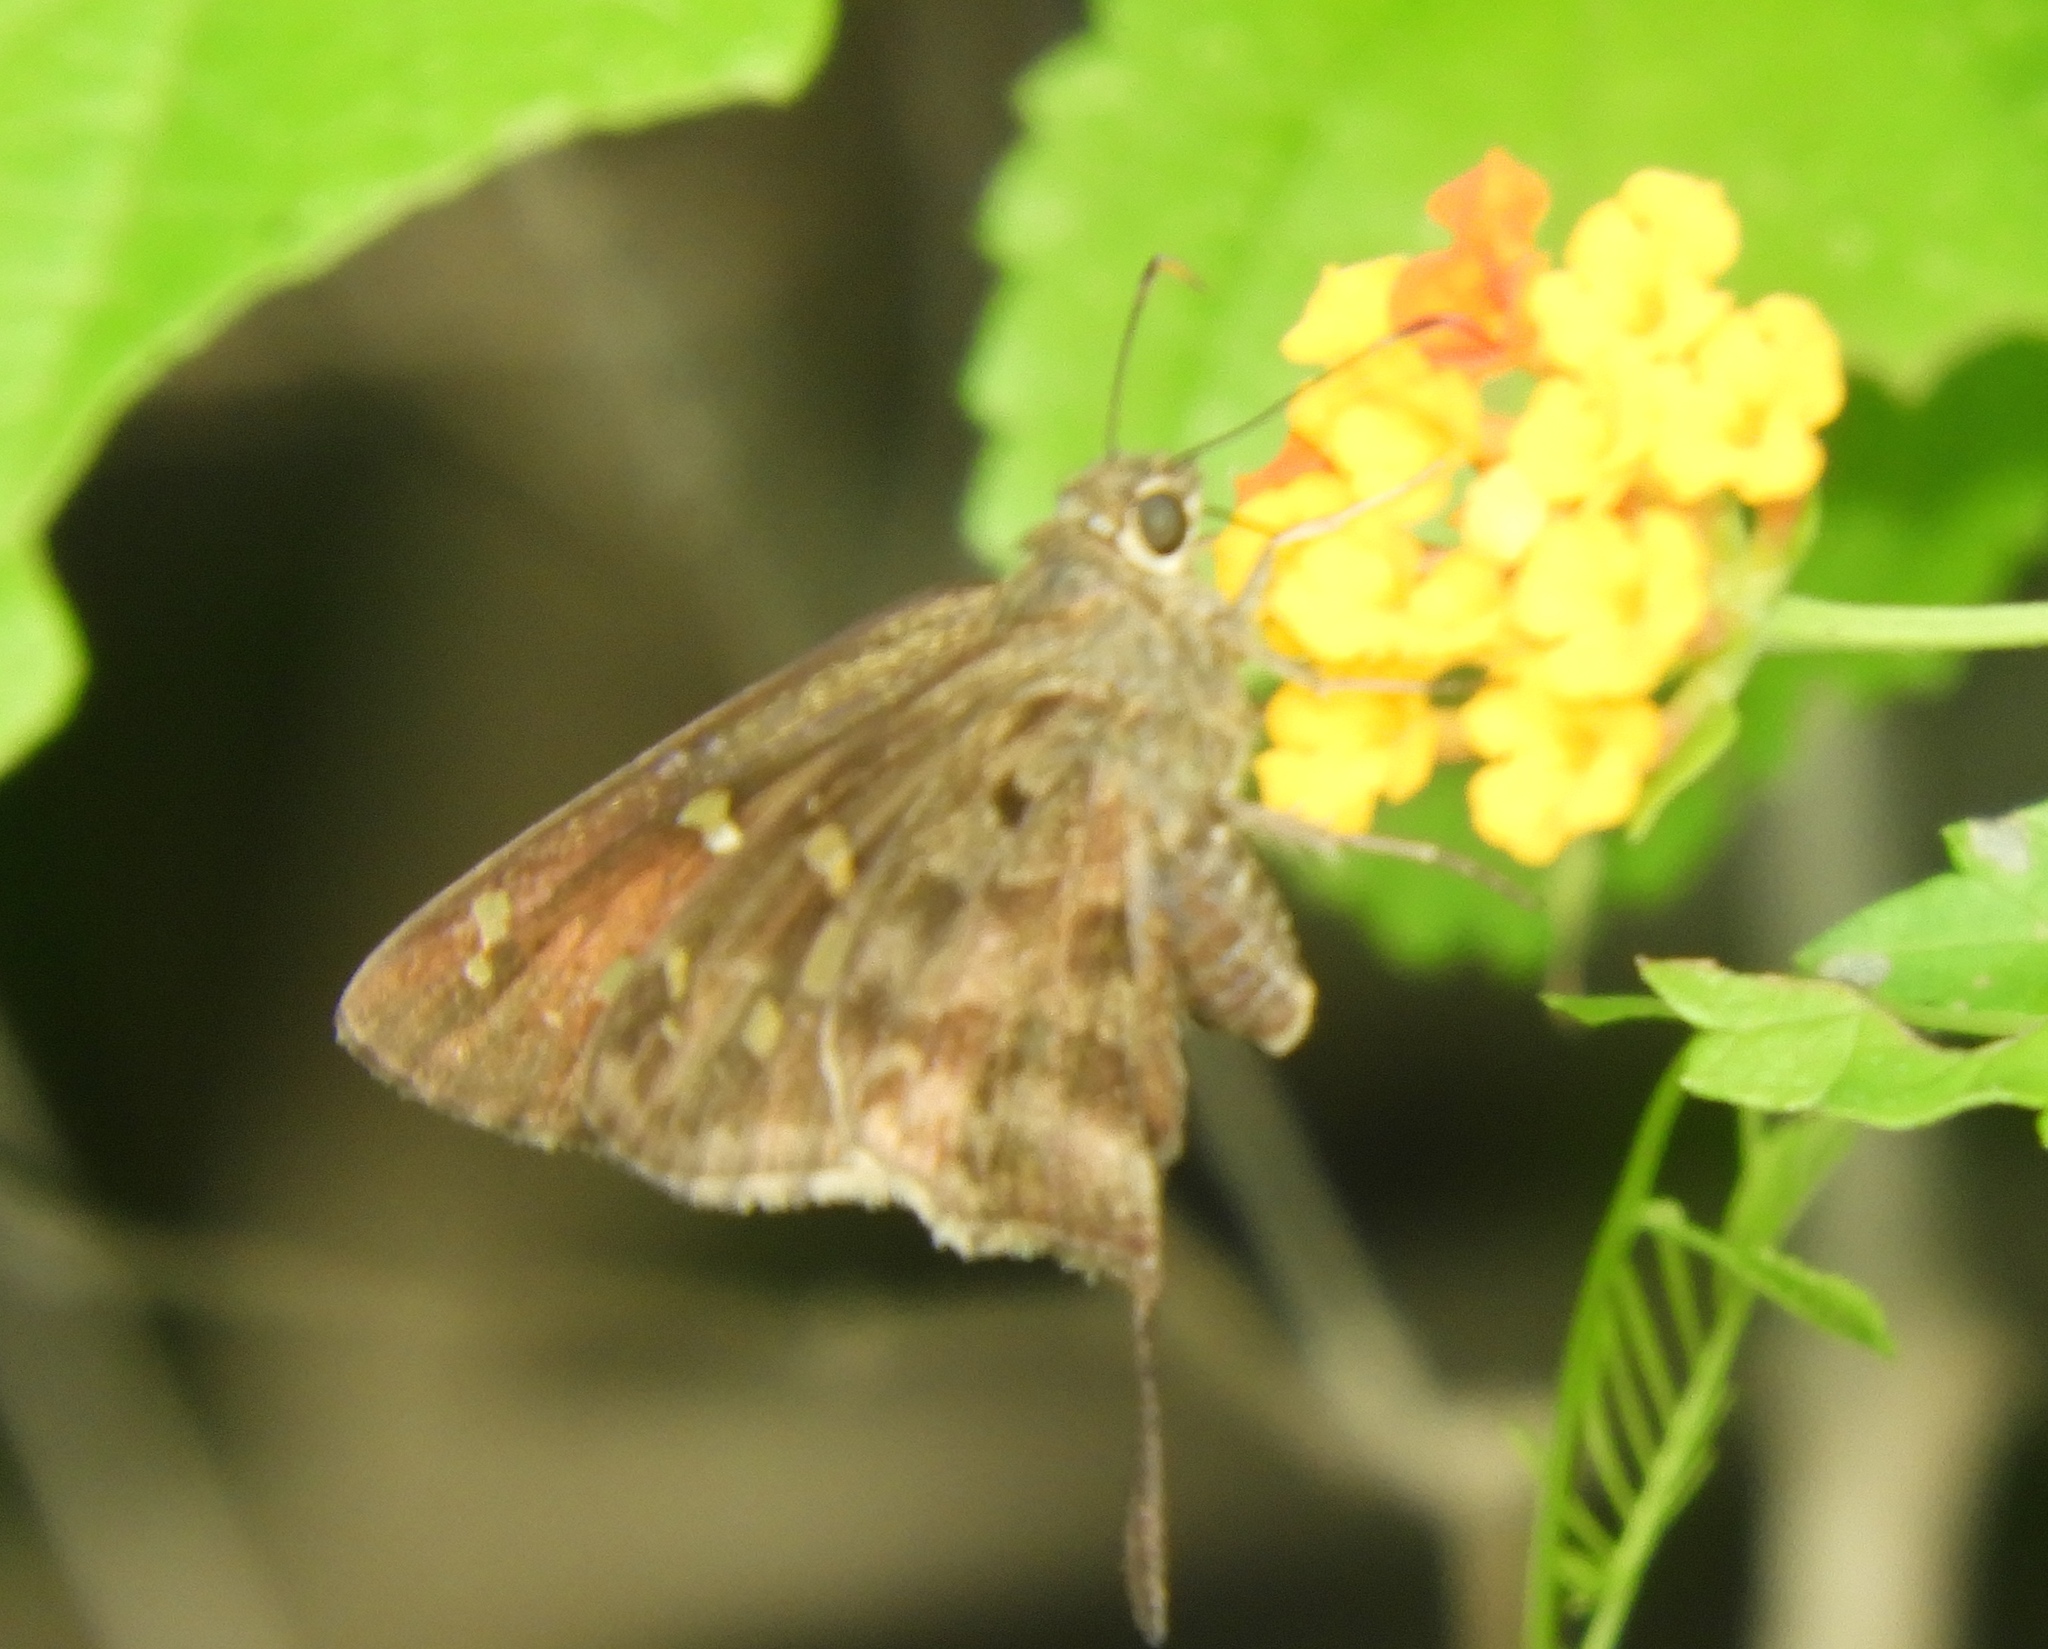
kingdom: Animalia
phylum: Arthropoda
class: Insecta
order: Lepidoptera
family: Hesperiidae
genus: Thorybes
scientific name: Thorybes
